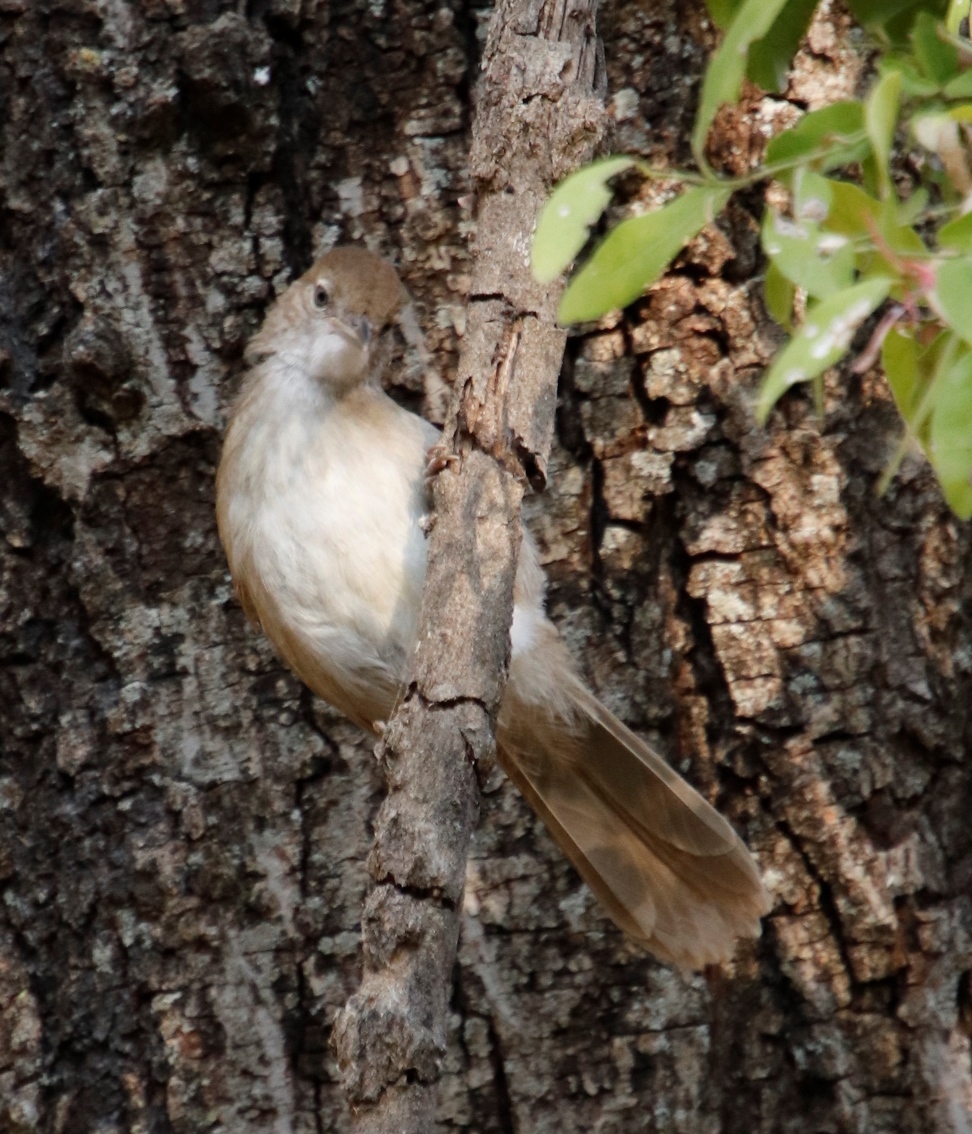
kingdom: Animalia
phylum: Chordata
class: Aves
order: Passeriformes
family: Pycnonotidae
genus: Phyllastrephus
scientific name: Phyllastrephus terrestris
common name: Terrestrial brownbul
